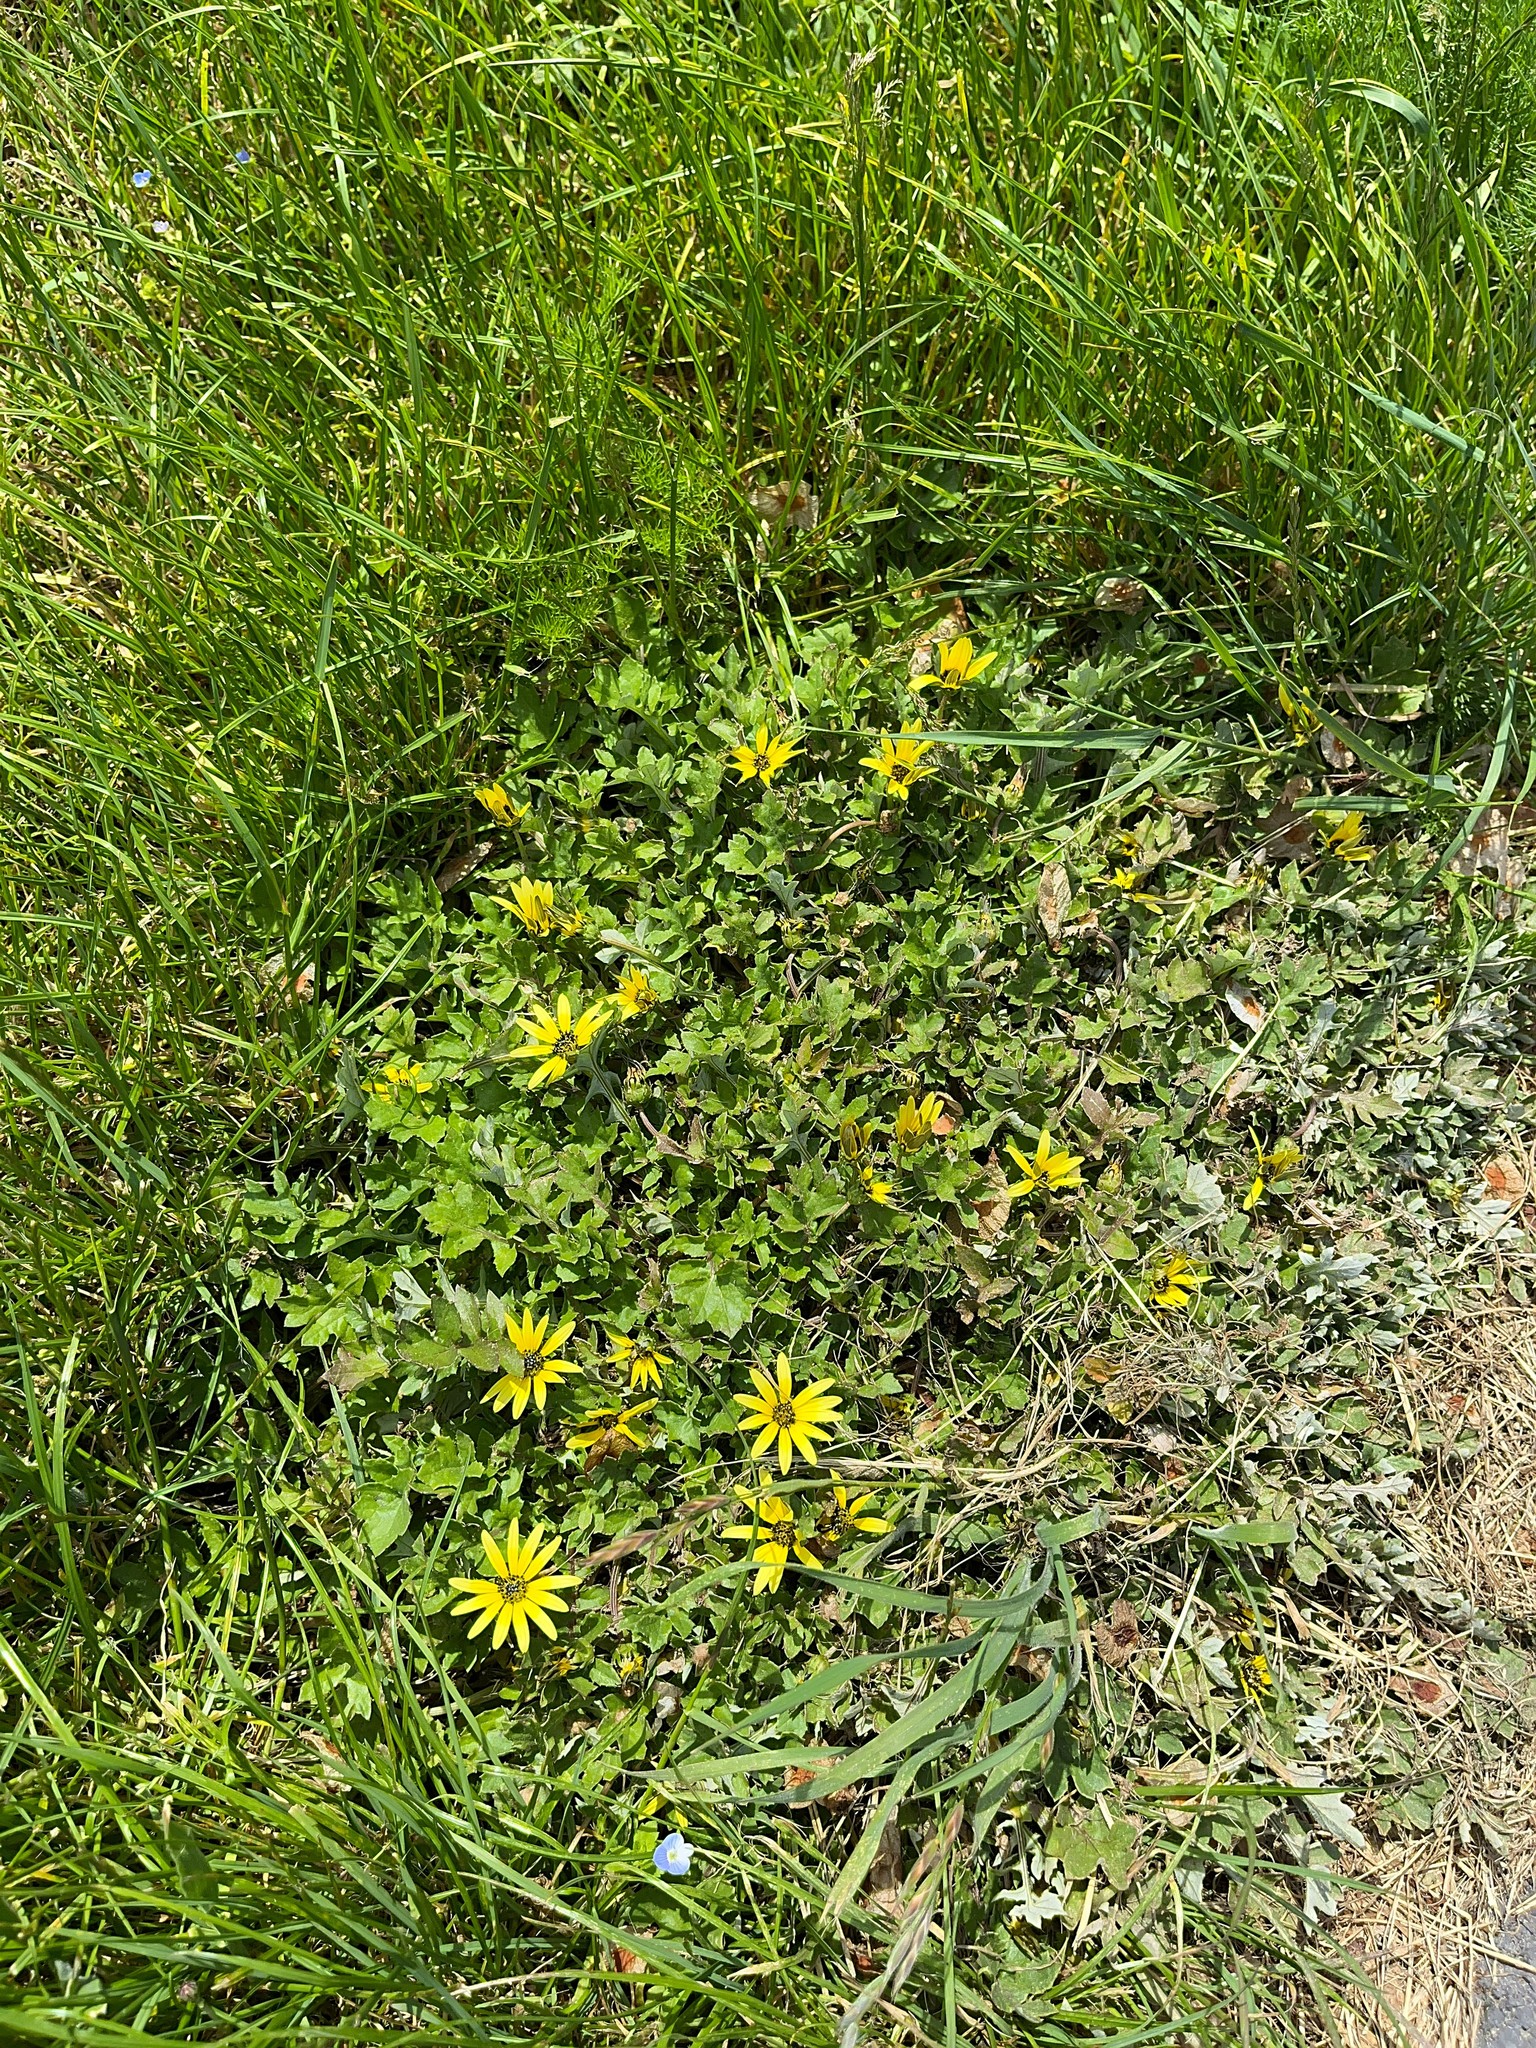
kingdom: Plantae
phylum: Tracheophyta
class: Magnoliopsida
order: Asterales
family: Asteraceae
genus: Arctotheca
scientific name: Arctotheca calendula
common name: Capeweed
